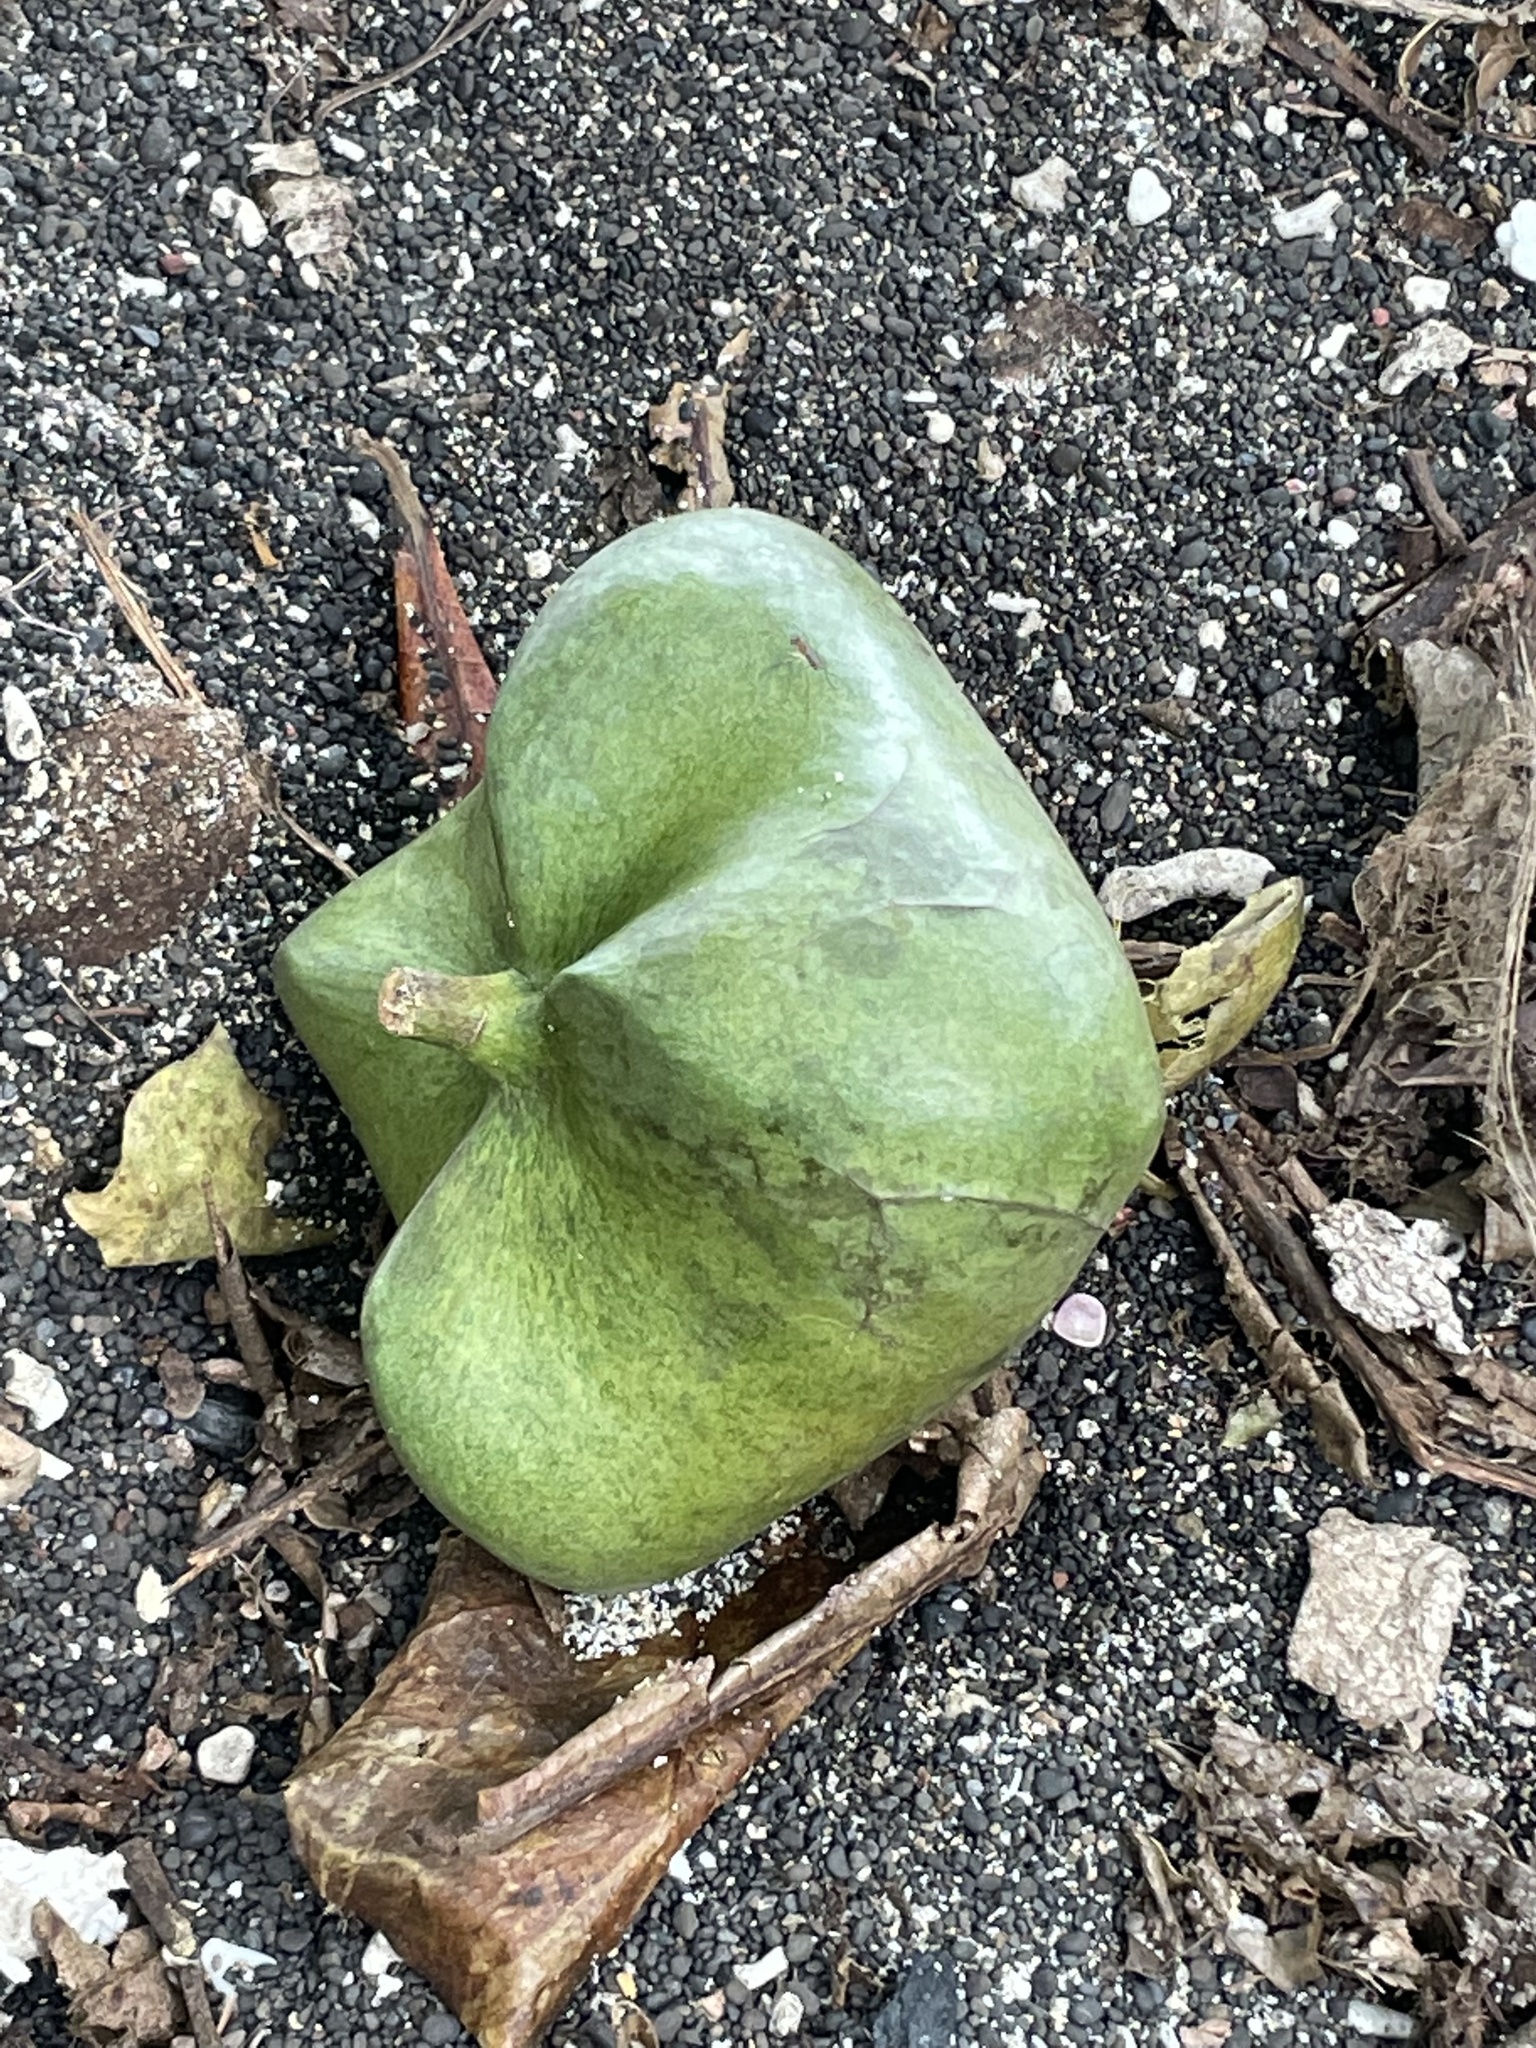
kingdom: Plantae
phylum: Tracheophyta
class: Magnoliopsida
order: Ericales
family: Lecythidaceae
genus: Barringtonia
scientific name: Barringtonia asiatica
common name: Mango-pine
